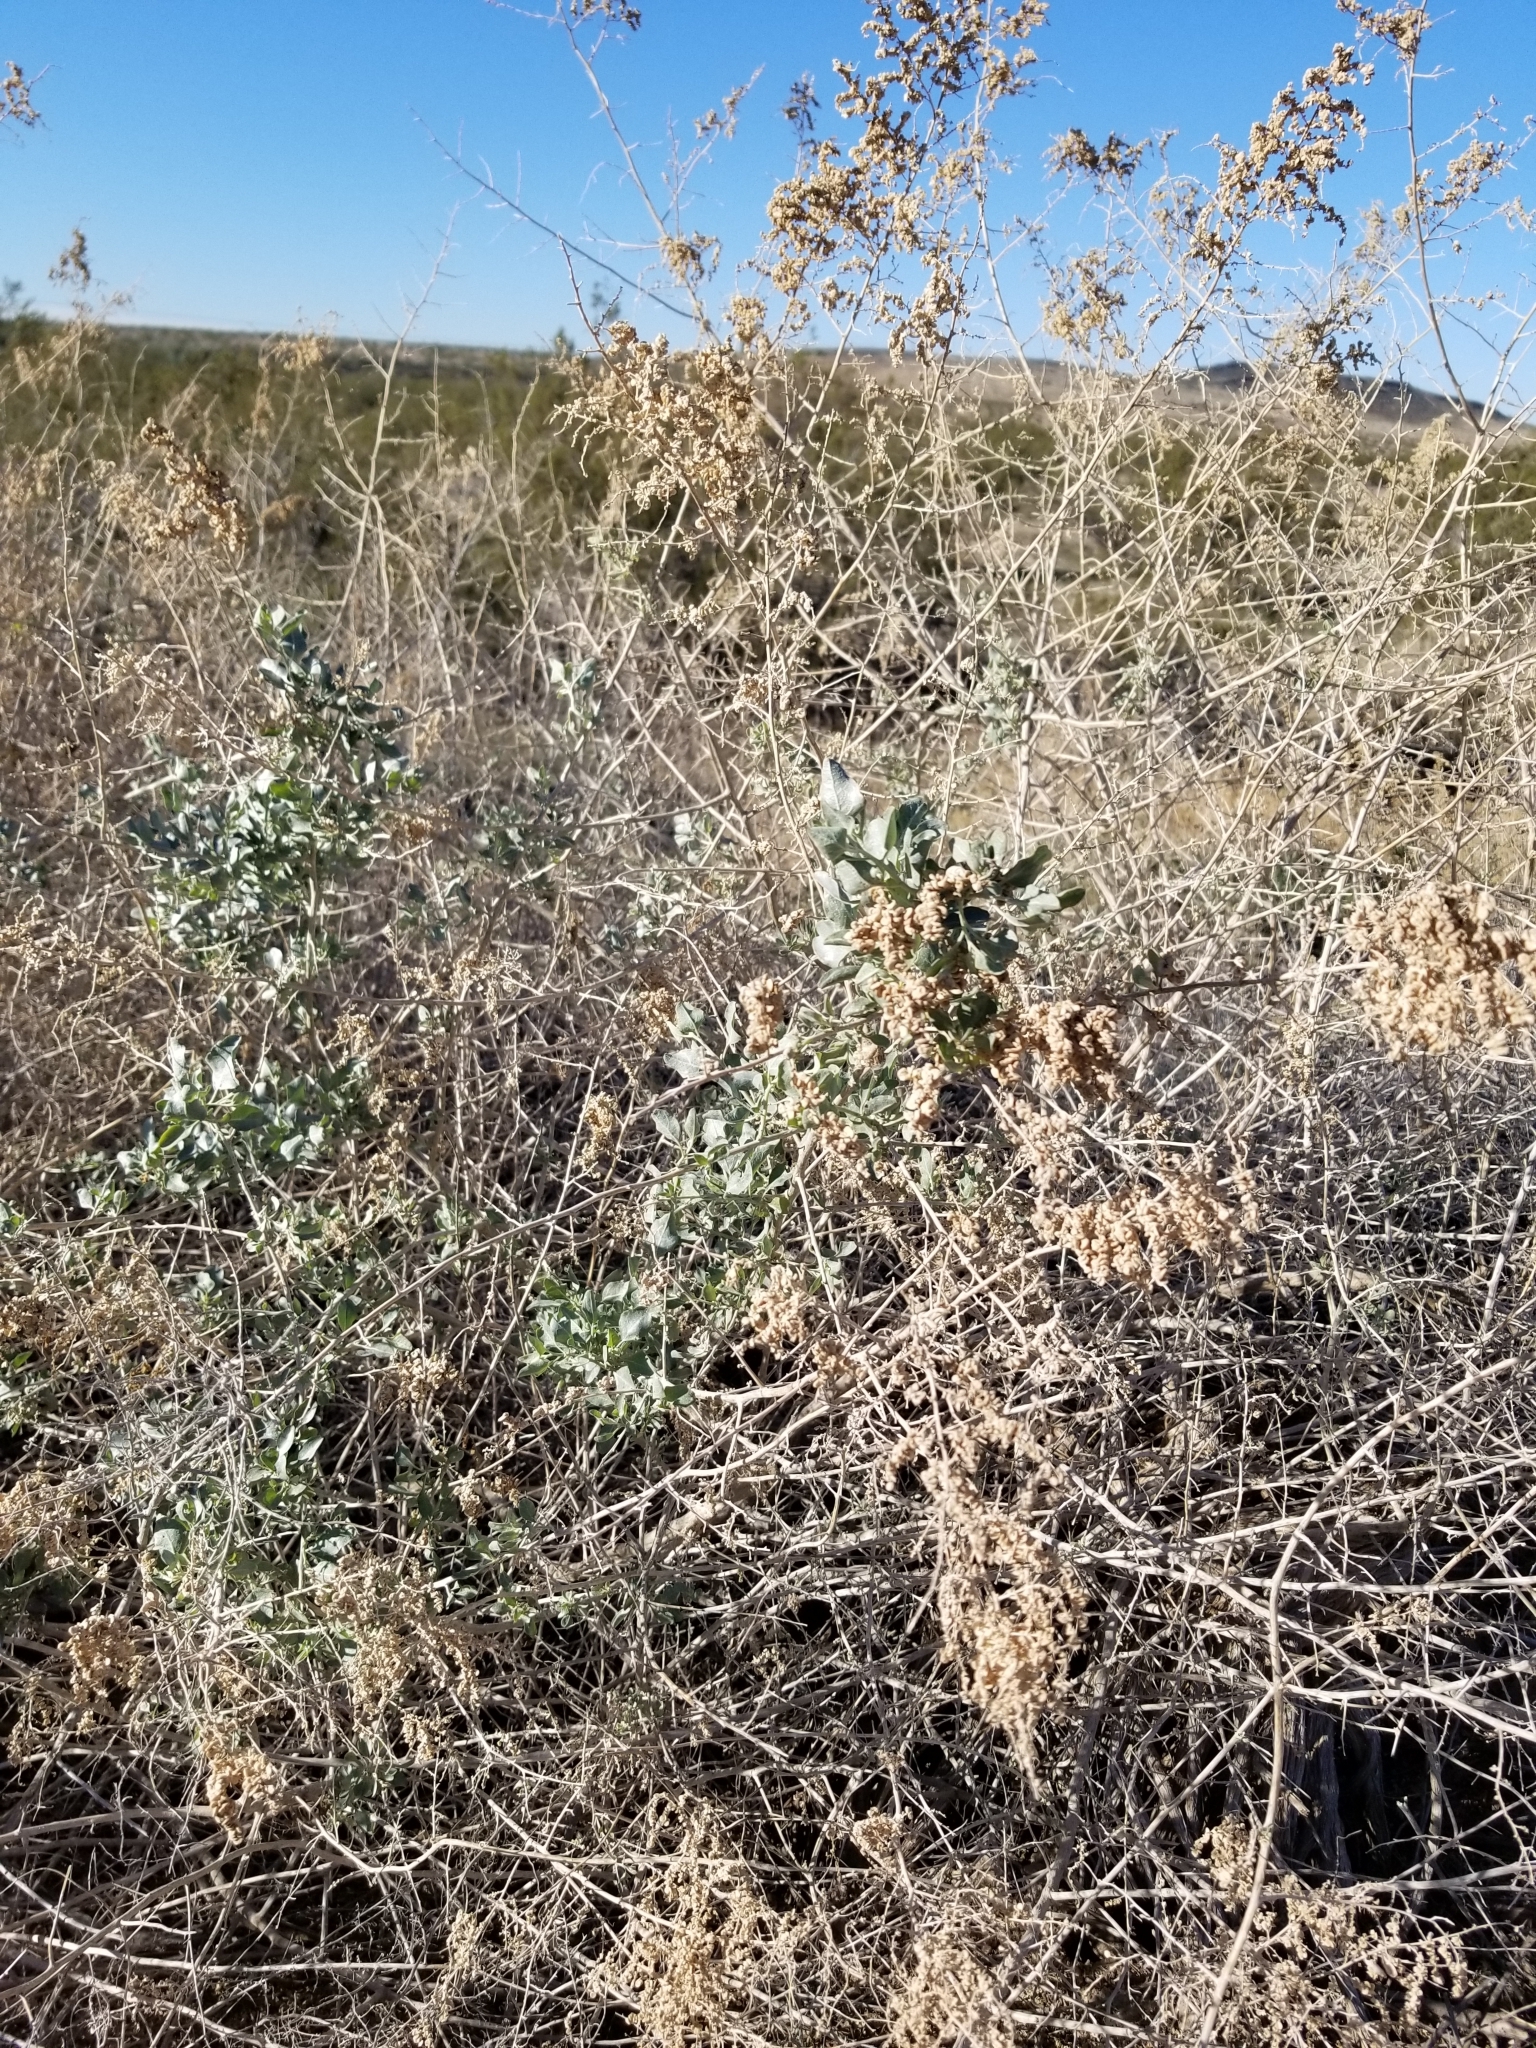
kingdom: Plantae
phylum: Tracheophyta
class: Magnoliopsida
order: Caryophyllales
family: Amaranthaceae
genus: Atriplex
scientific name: Atriplex lentiformis
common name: Big saltbush
